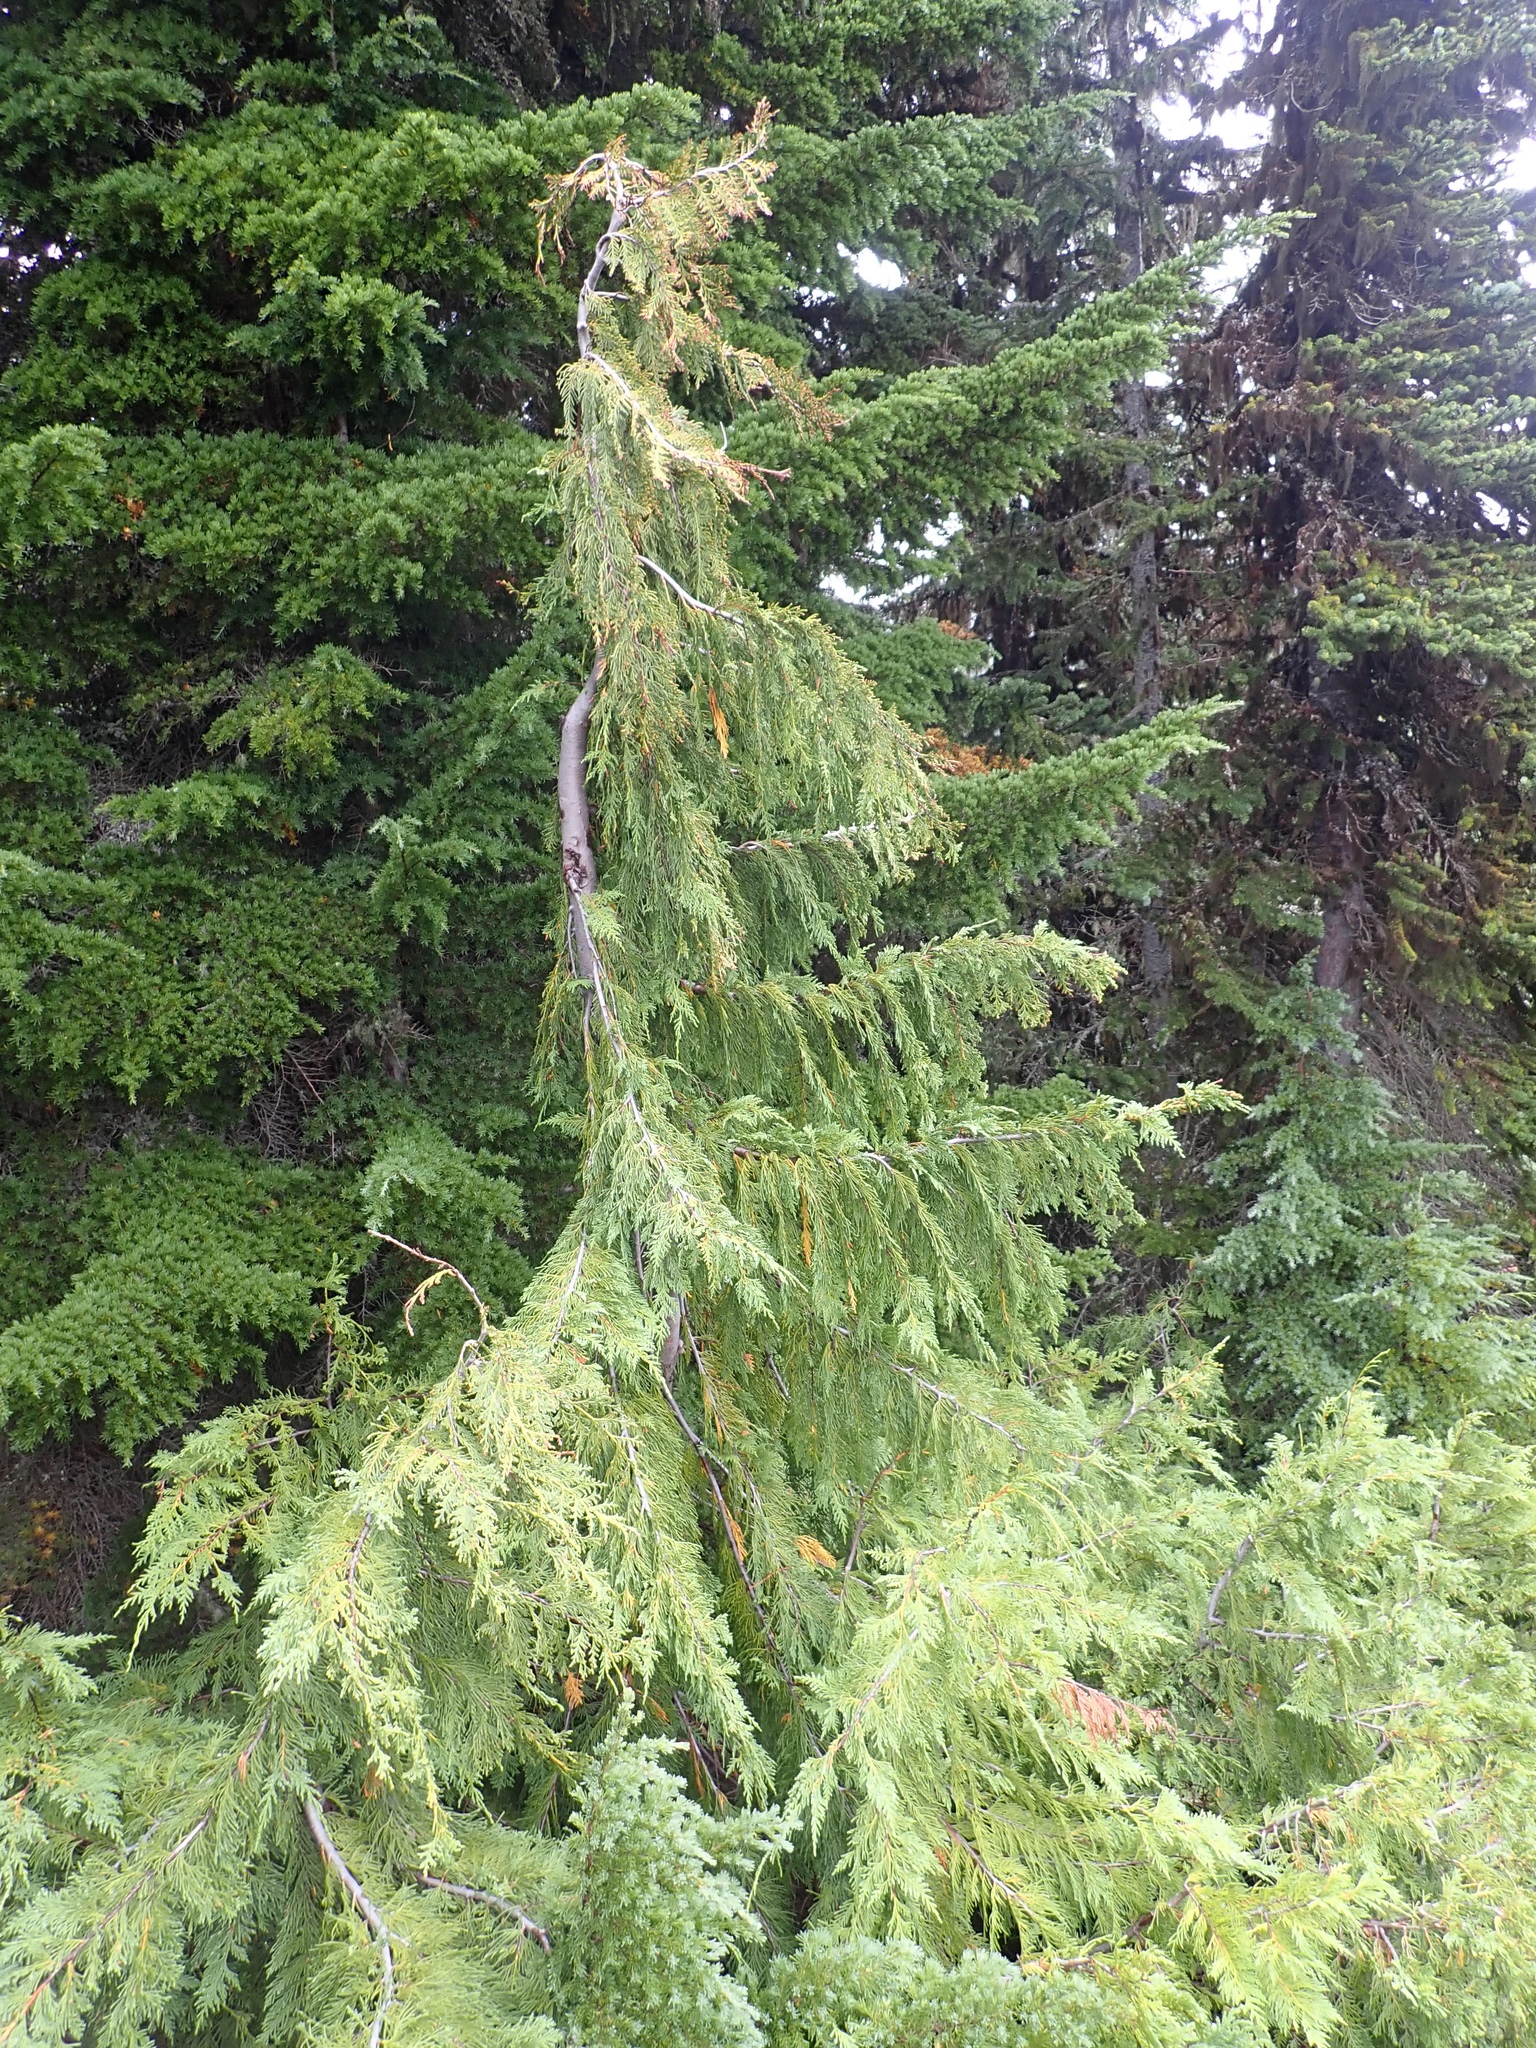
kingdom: Plantae
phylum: Tracheophyta
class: Pinopsida
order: Pinales
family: Cupressaceae
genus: Xanthocyparis
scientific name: Xanthocyparis nootkatensis
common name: Nootka cypress
